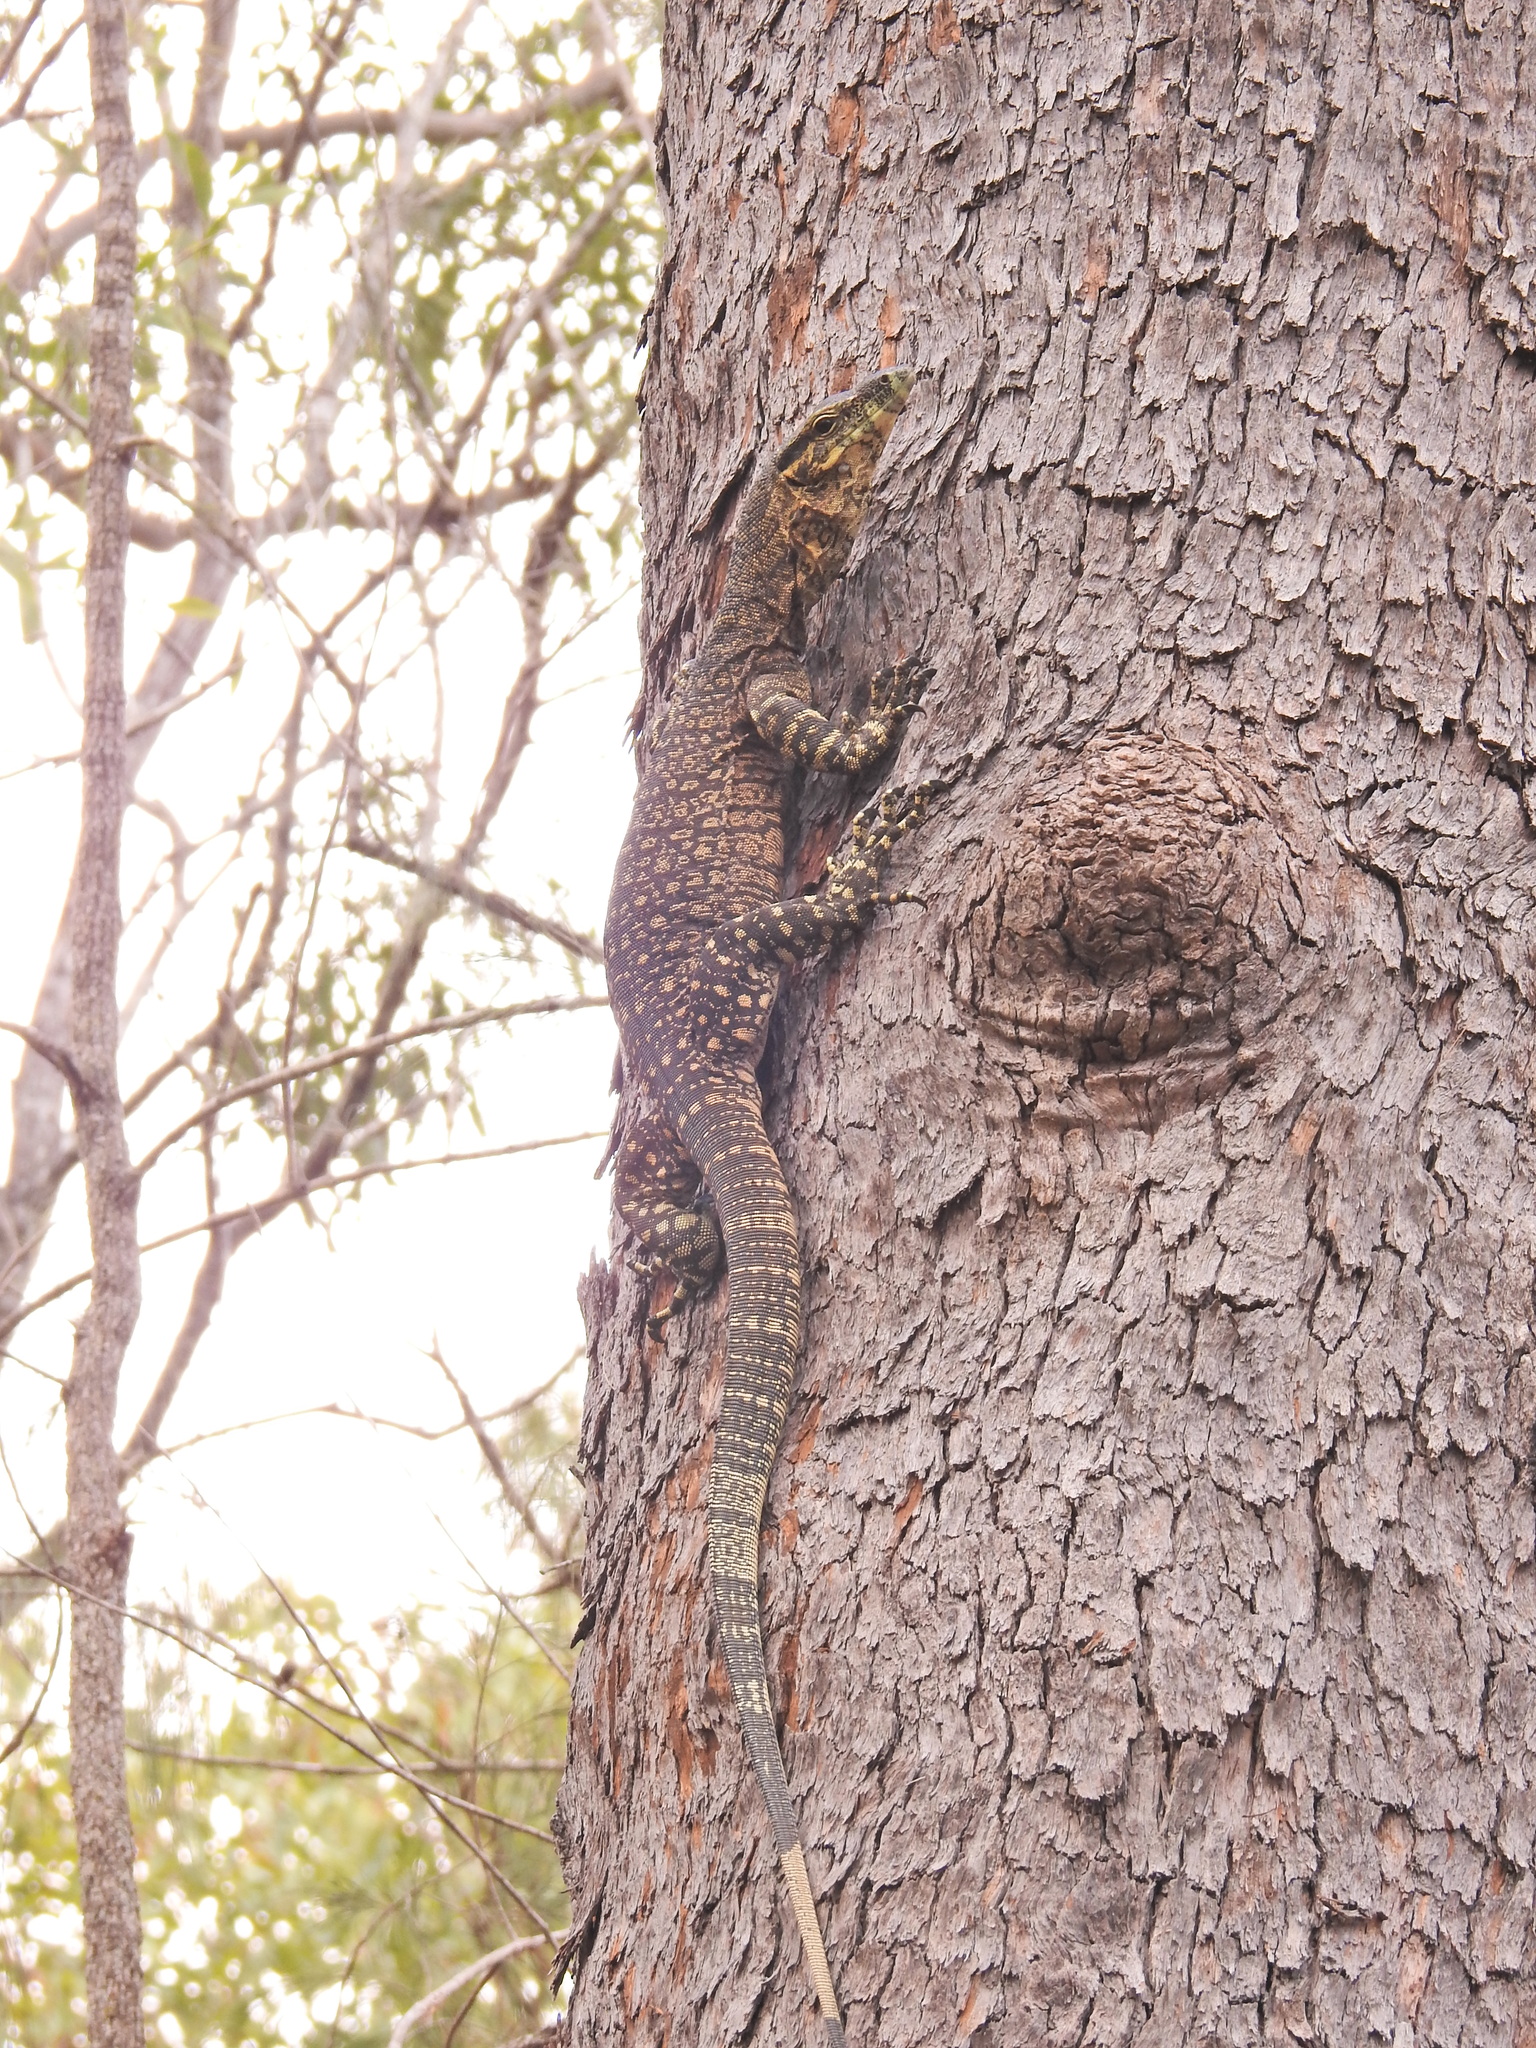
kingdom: Animalia
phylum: Chordata
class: Squamata
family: Varanidae
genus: Varanus
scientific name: Varanus varius
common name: Lace monitor
